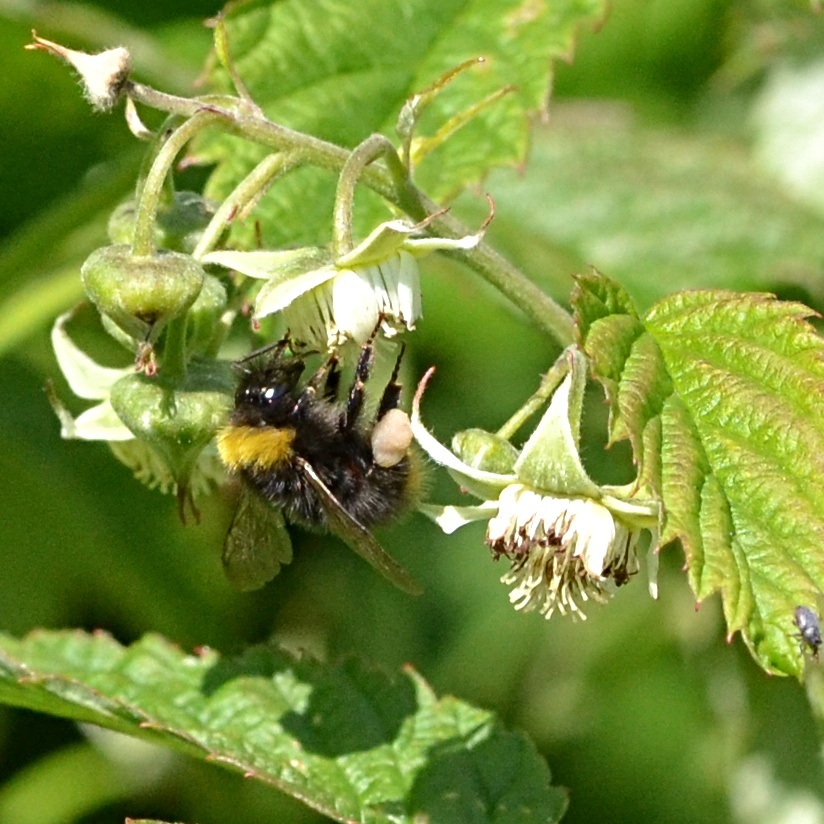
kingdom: Animalia
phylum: Arthropoda
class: Insecta
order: Hymenoptera
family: Apidae
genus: Bombus
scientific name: Bombus pratorum
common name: Early humble-bee
